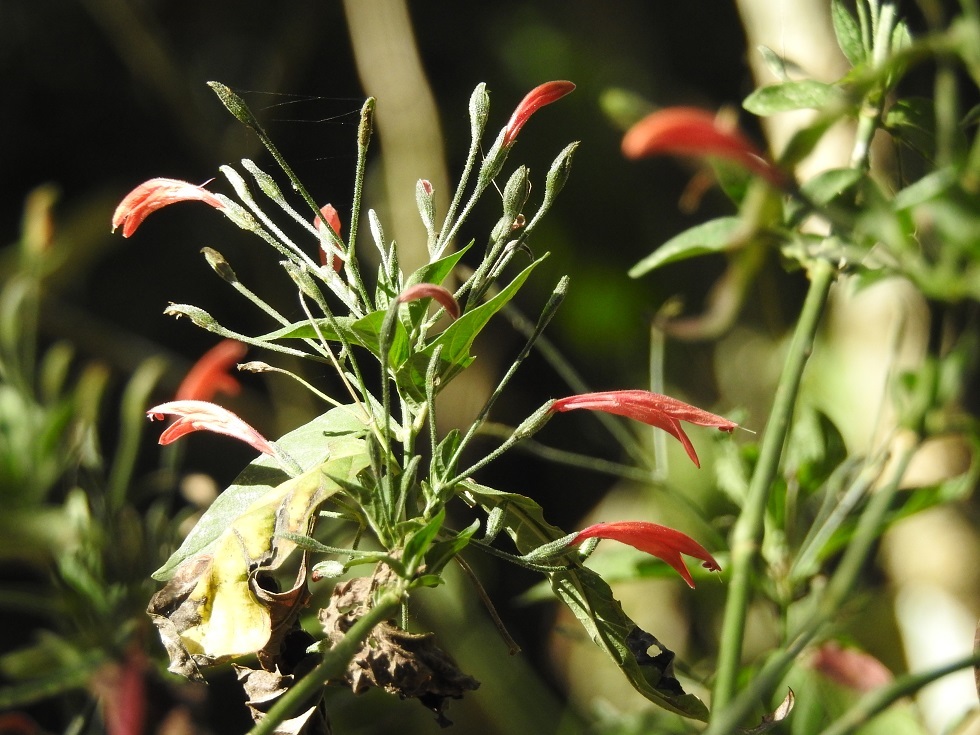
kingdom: Plantae
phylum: Tracheophyta
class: Magnoliopsida
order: Lamiales
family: Acanthaceae
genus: Dicliptera
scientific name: Dicliptera sciadephora
